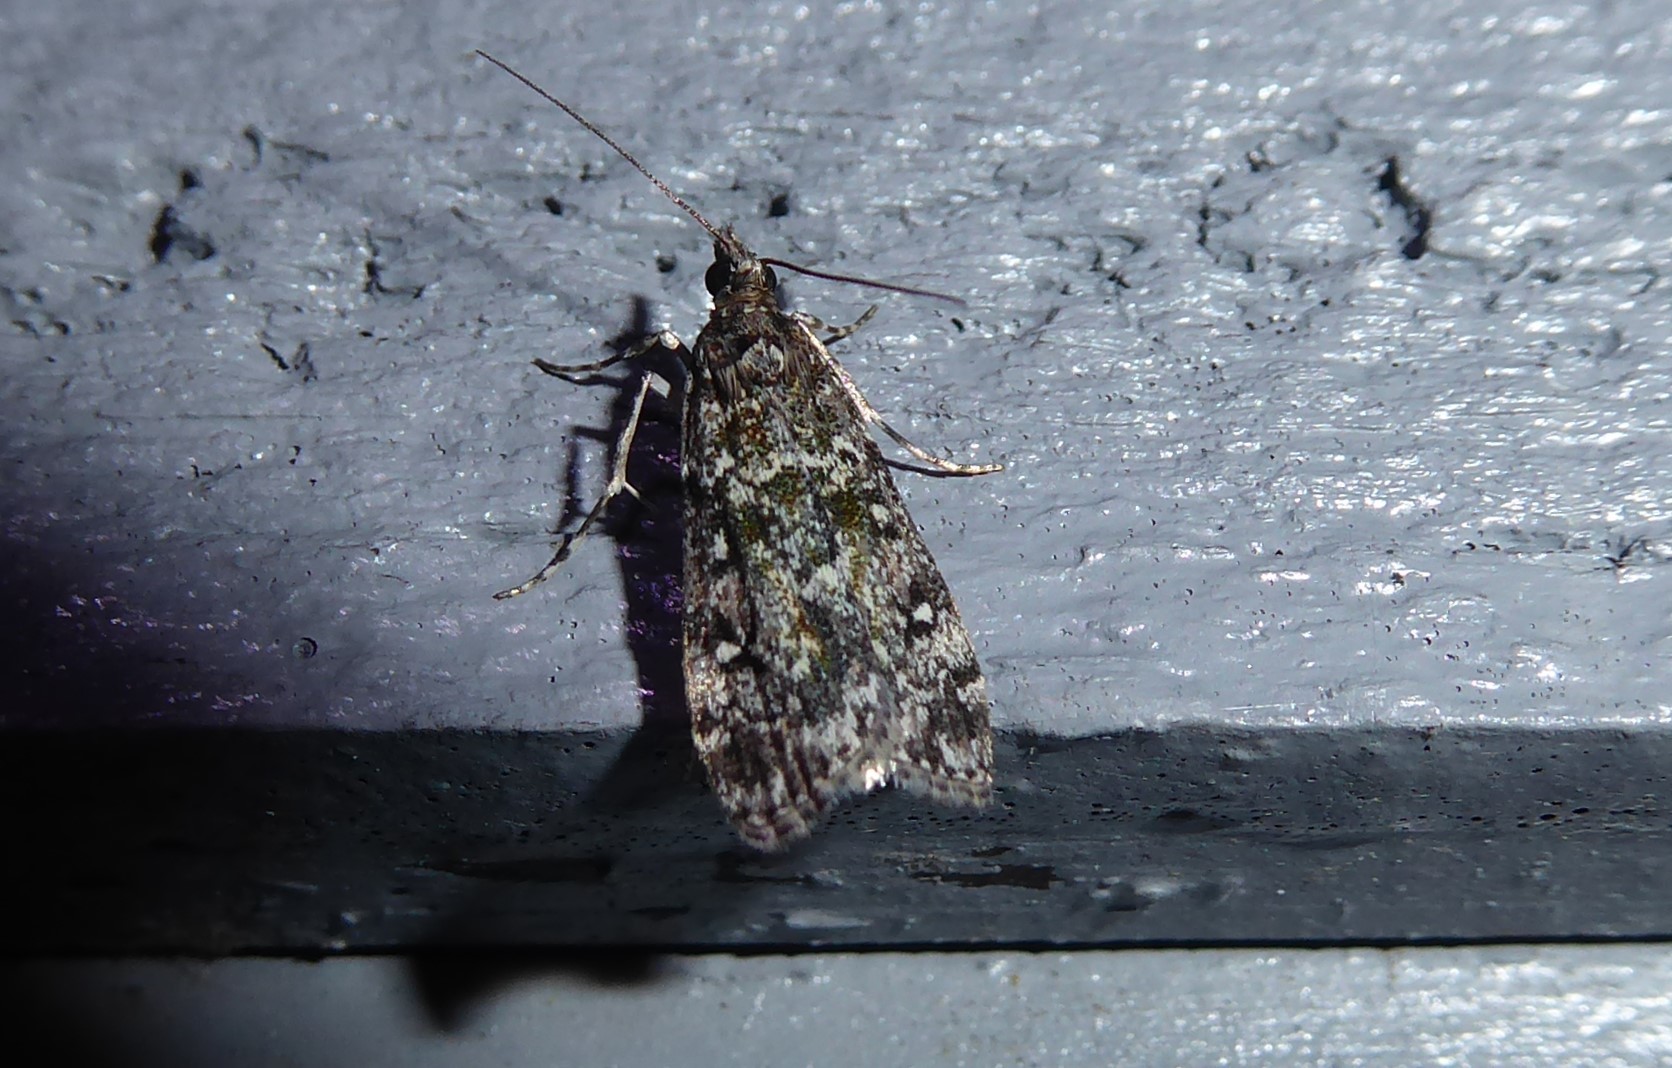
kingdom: Animalia
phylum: Arthropoda
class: Insecta
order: Lepidoptera
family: Crambidae
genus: Eudonia
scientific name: Eudonia philerga
